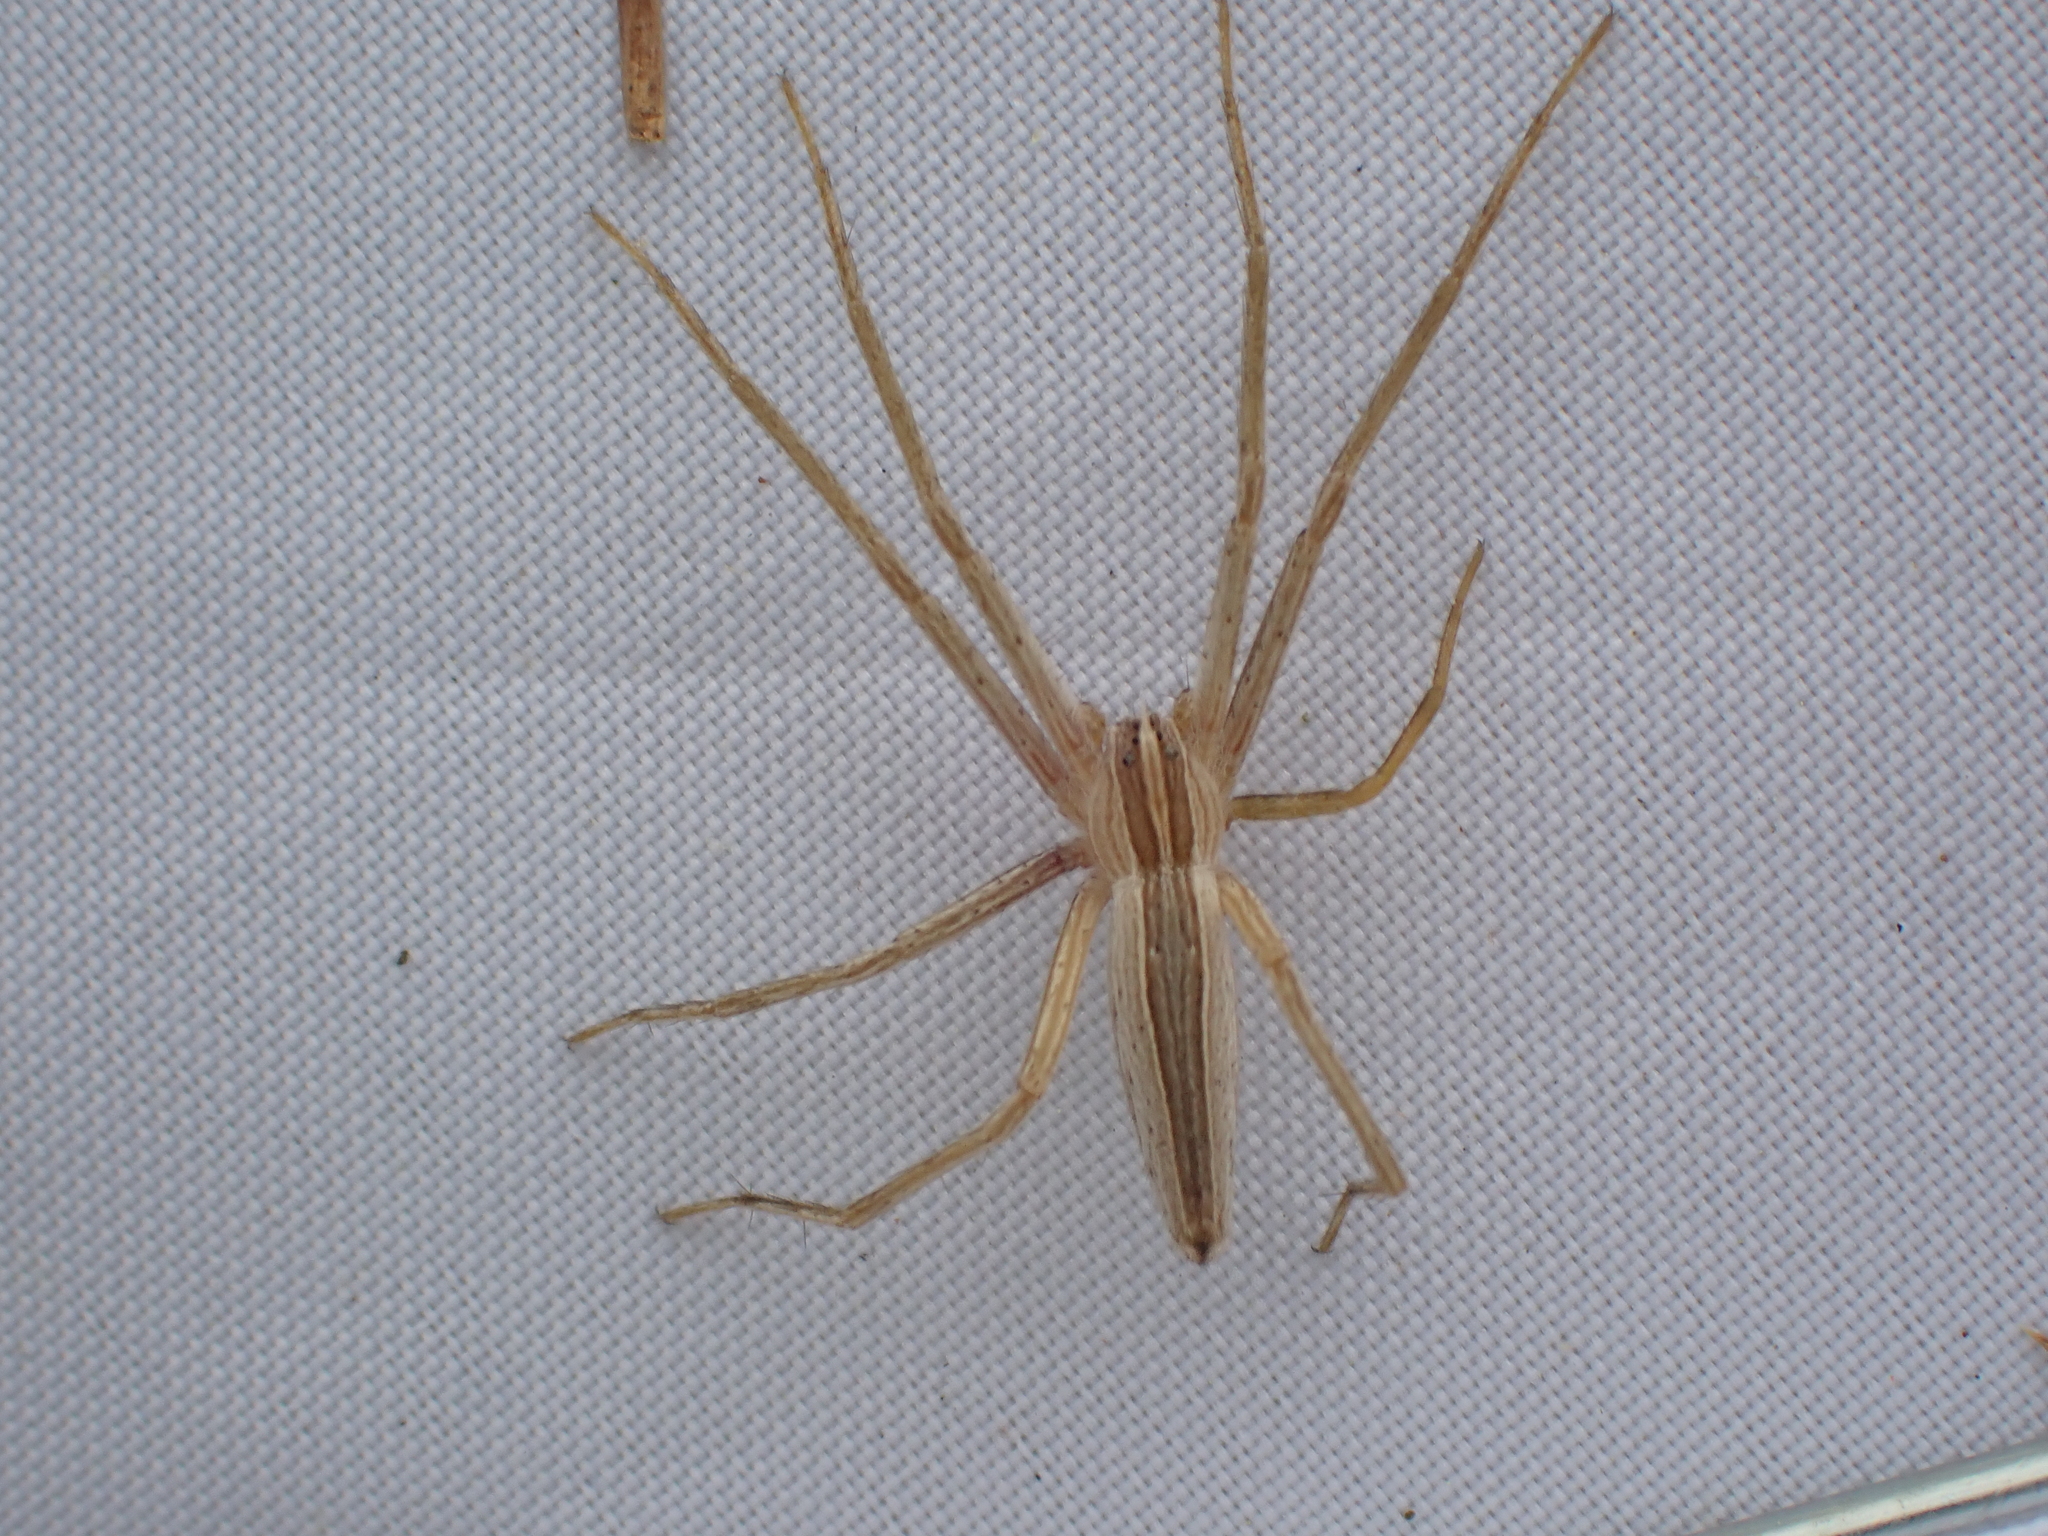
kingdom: Animalia
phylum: Arthropoda
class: Arachnida
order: Araneae
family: Pisauridae
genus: Pisaurina
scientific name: Pisaurina dubia
